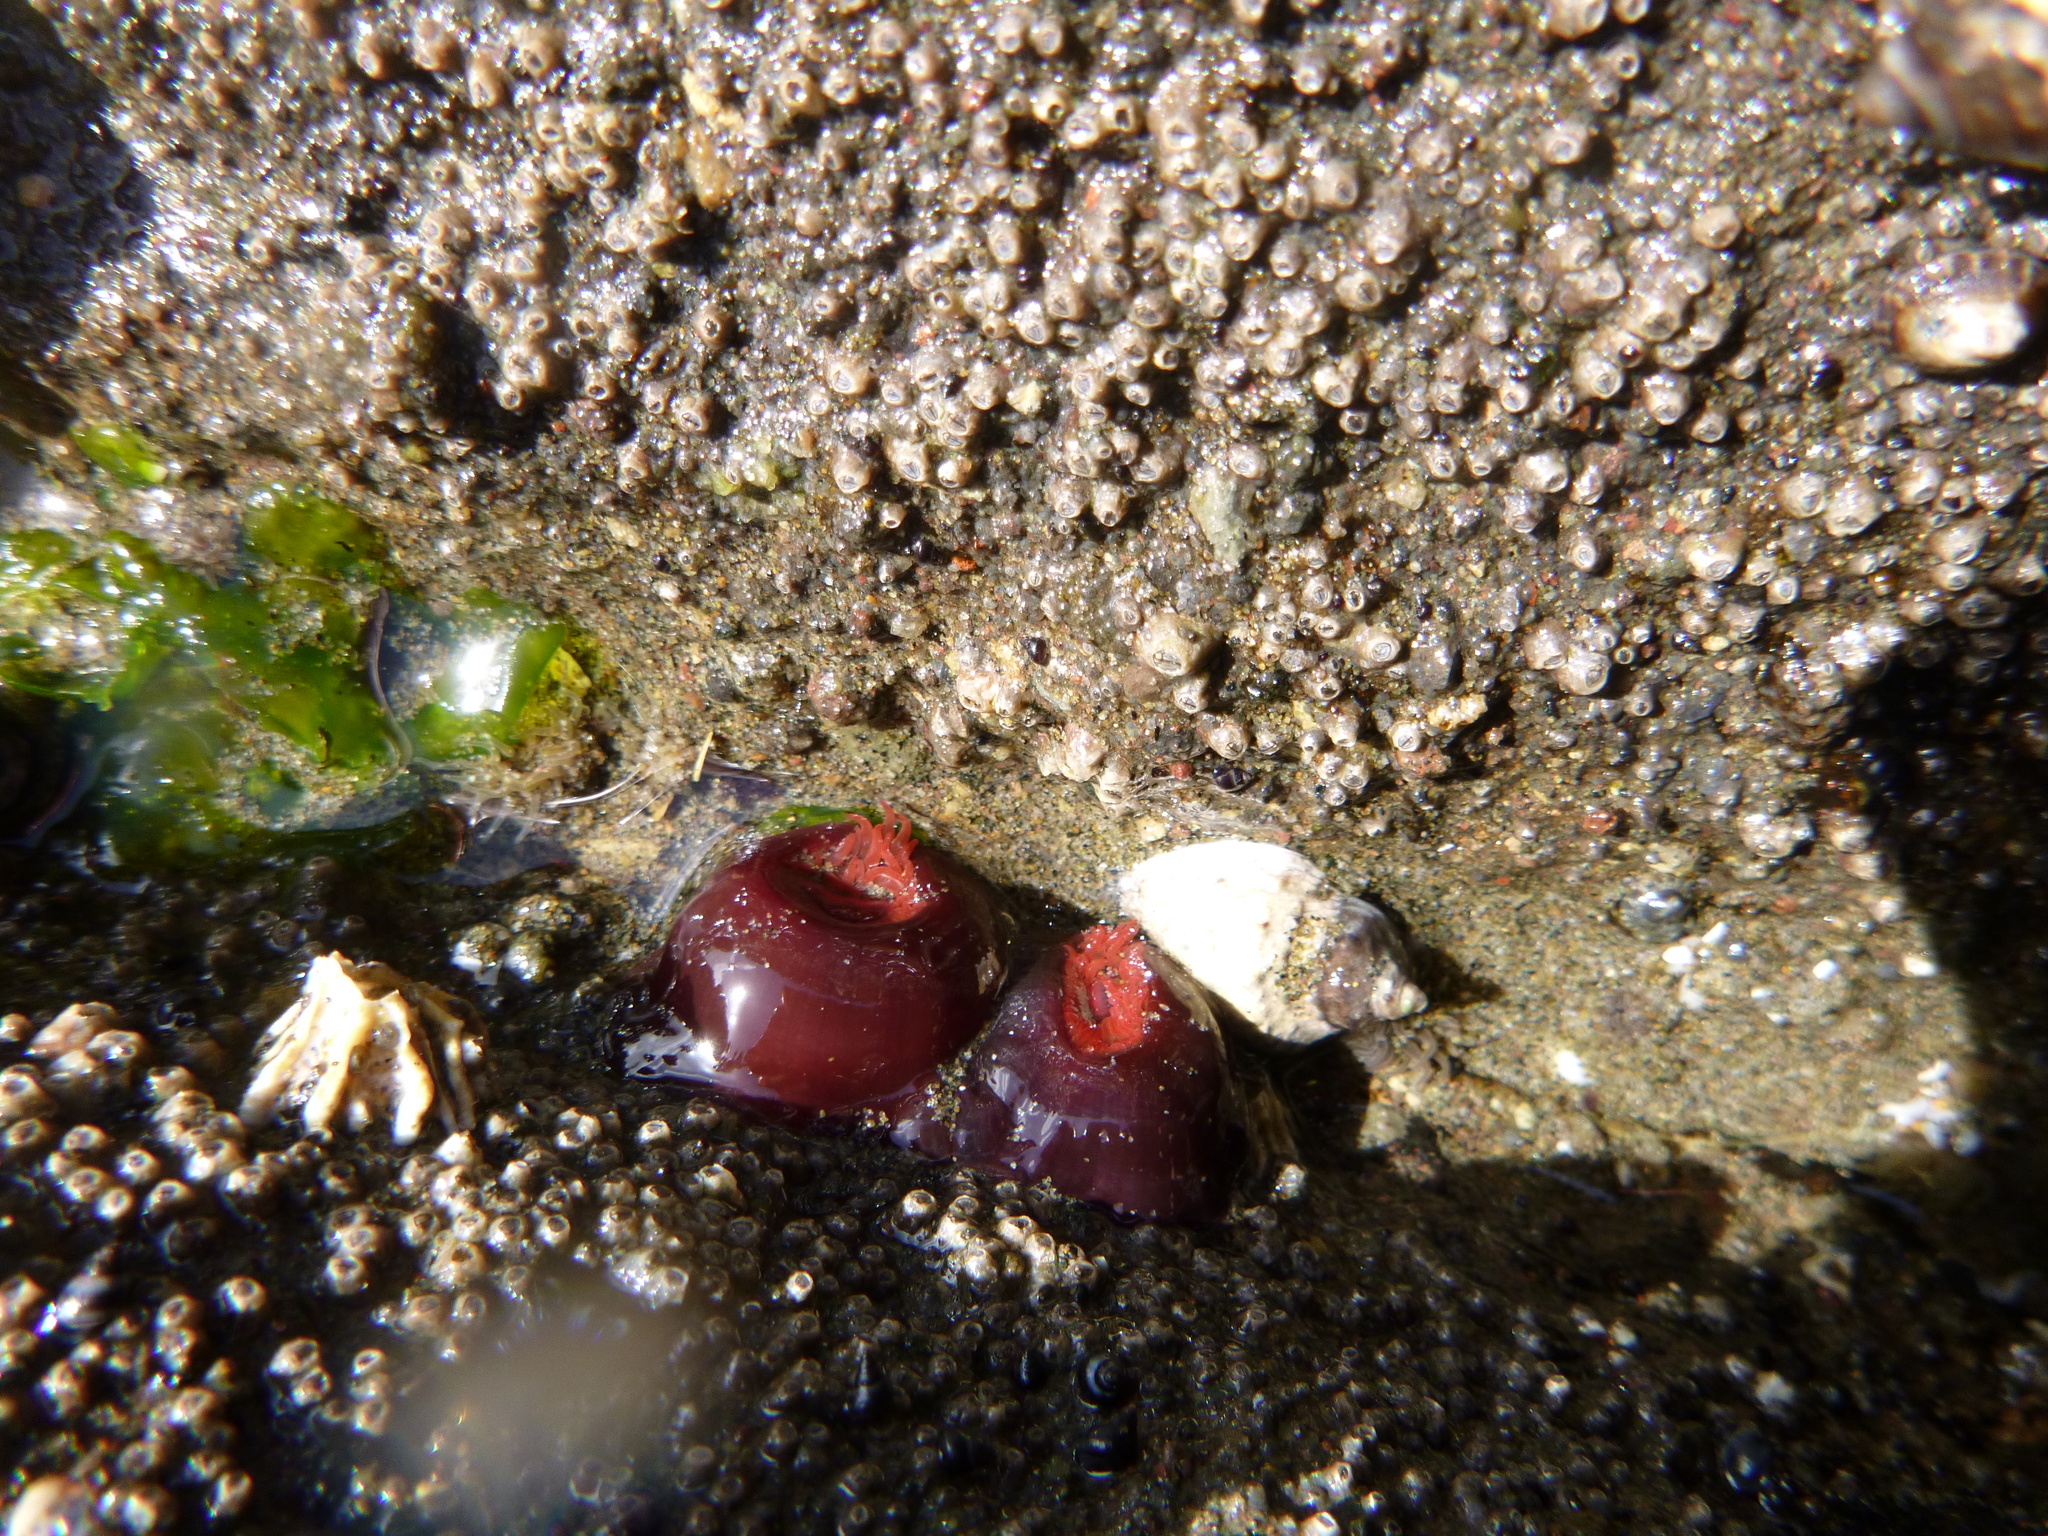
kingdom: Animalia
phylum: Cnidaria
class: Anthozoa
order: Actiniaria
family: Actiniidae
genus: Actinia
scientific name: Actinia tenebrosa
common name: Waratah anemone
